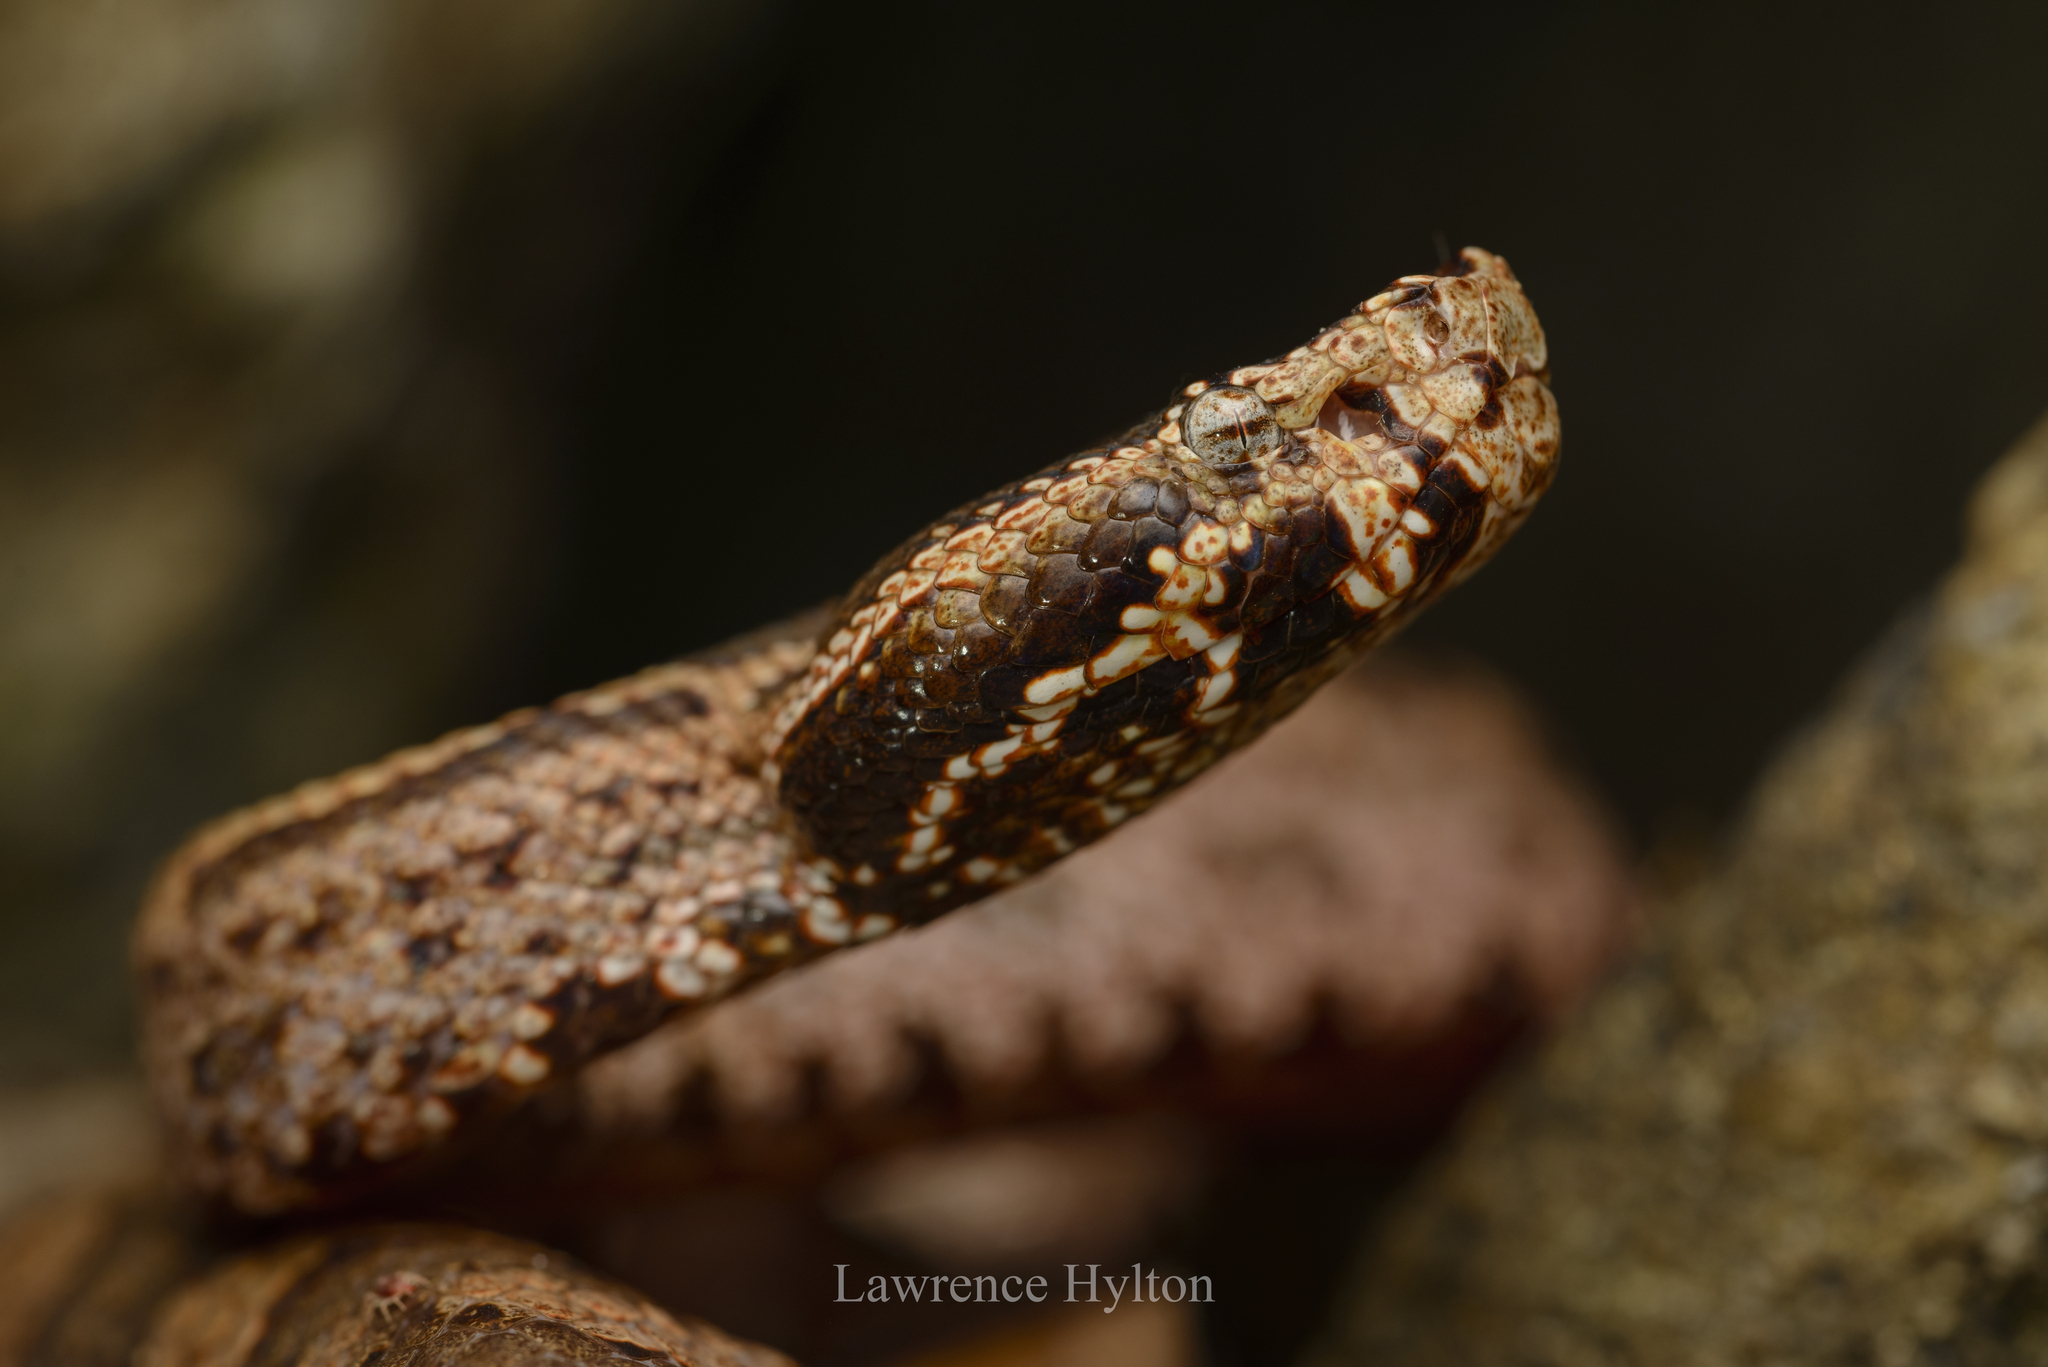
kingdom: Animalia
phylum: Chordata
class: Squamata
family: Viperidae
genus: Ovophis
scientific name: Ovophis tonkinensis
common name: Tonkin pitviper
